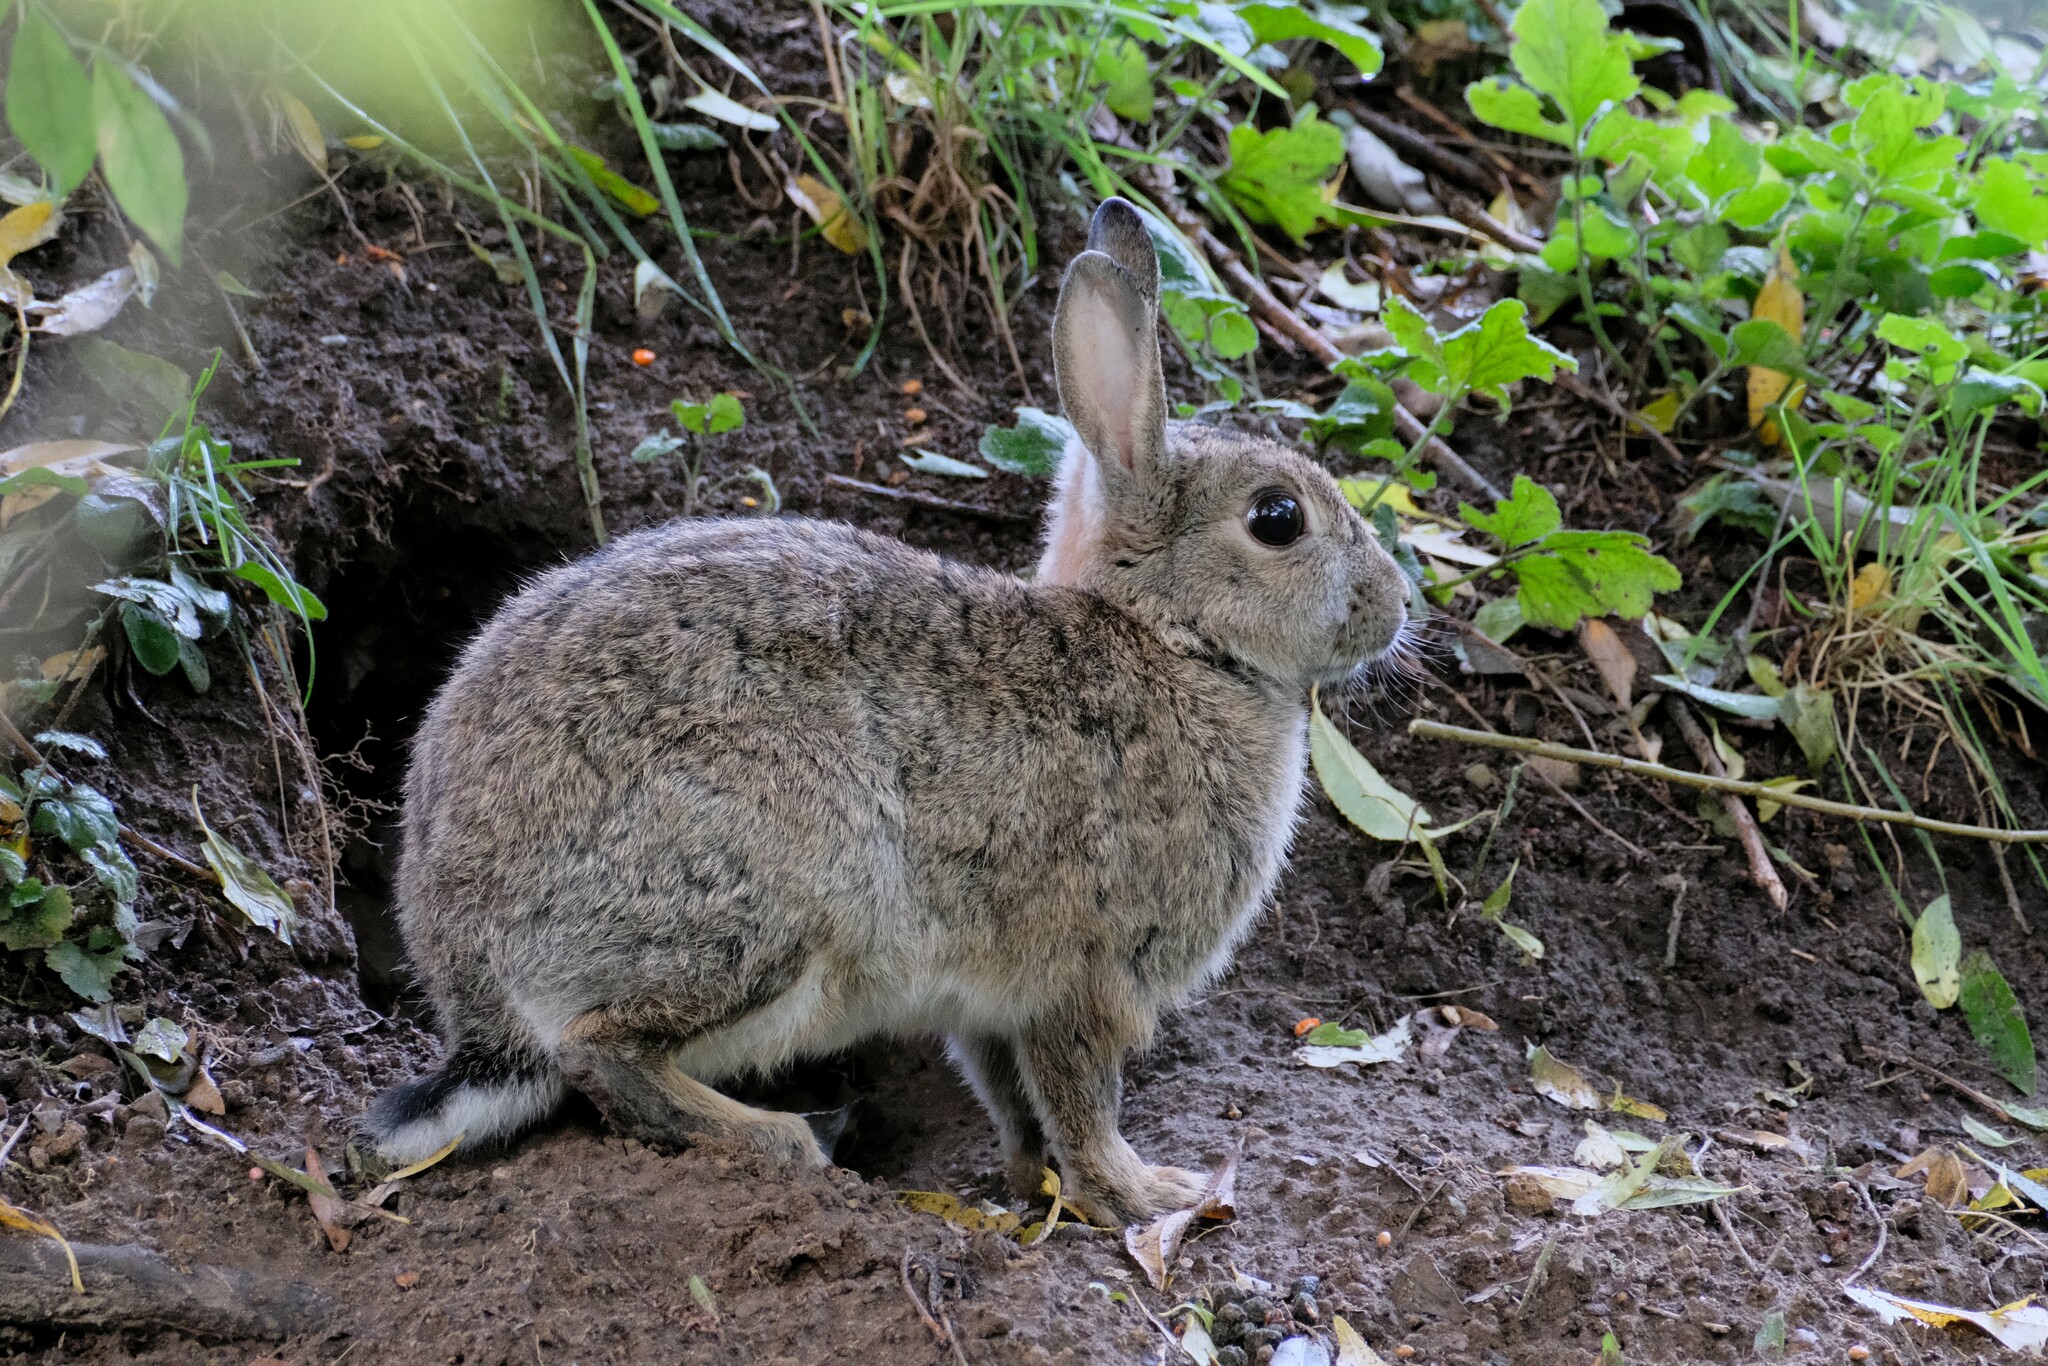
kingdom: Animalia
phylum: Chordata
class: Mammalia
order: Lagomorpha
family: Leporidae
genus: Oryctolagus
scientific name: Oryctolagus cuniculus
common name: European rabbit
